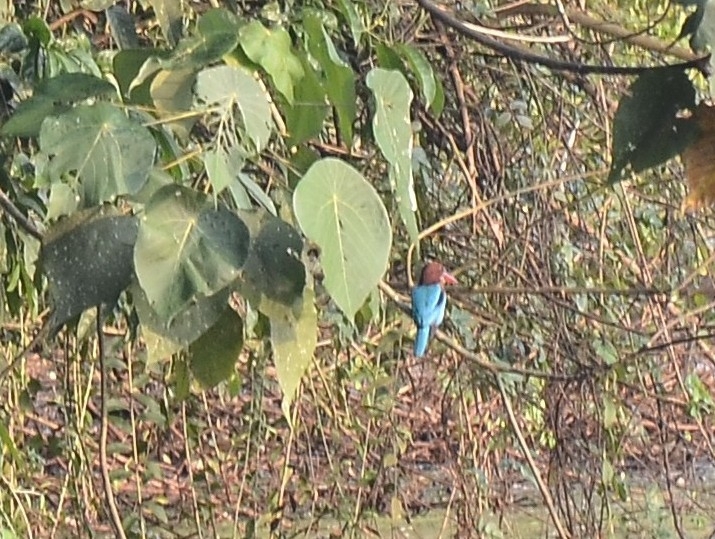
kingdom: Animalia
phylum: Chordata
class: Aves
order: Coraciiformes
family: Alcedinidae
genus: Halcyon
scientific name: Halcyon smyrnensis
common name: White-throated kingfisher
